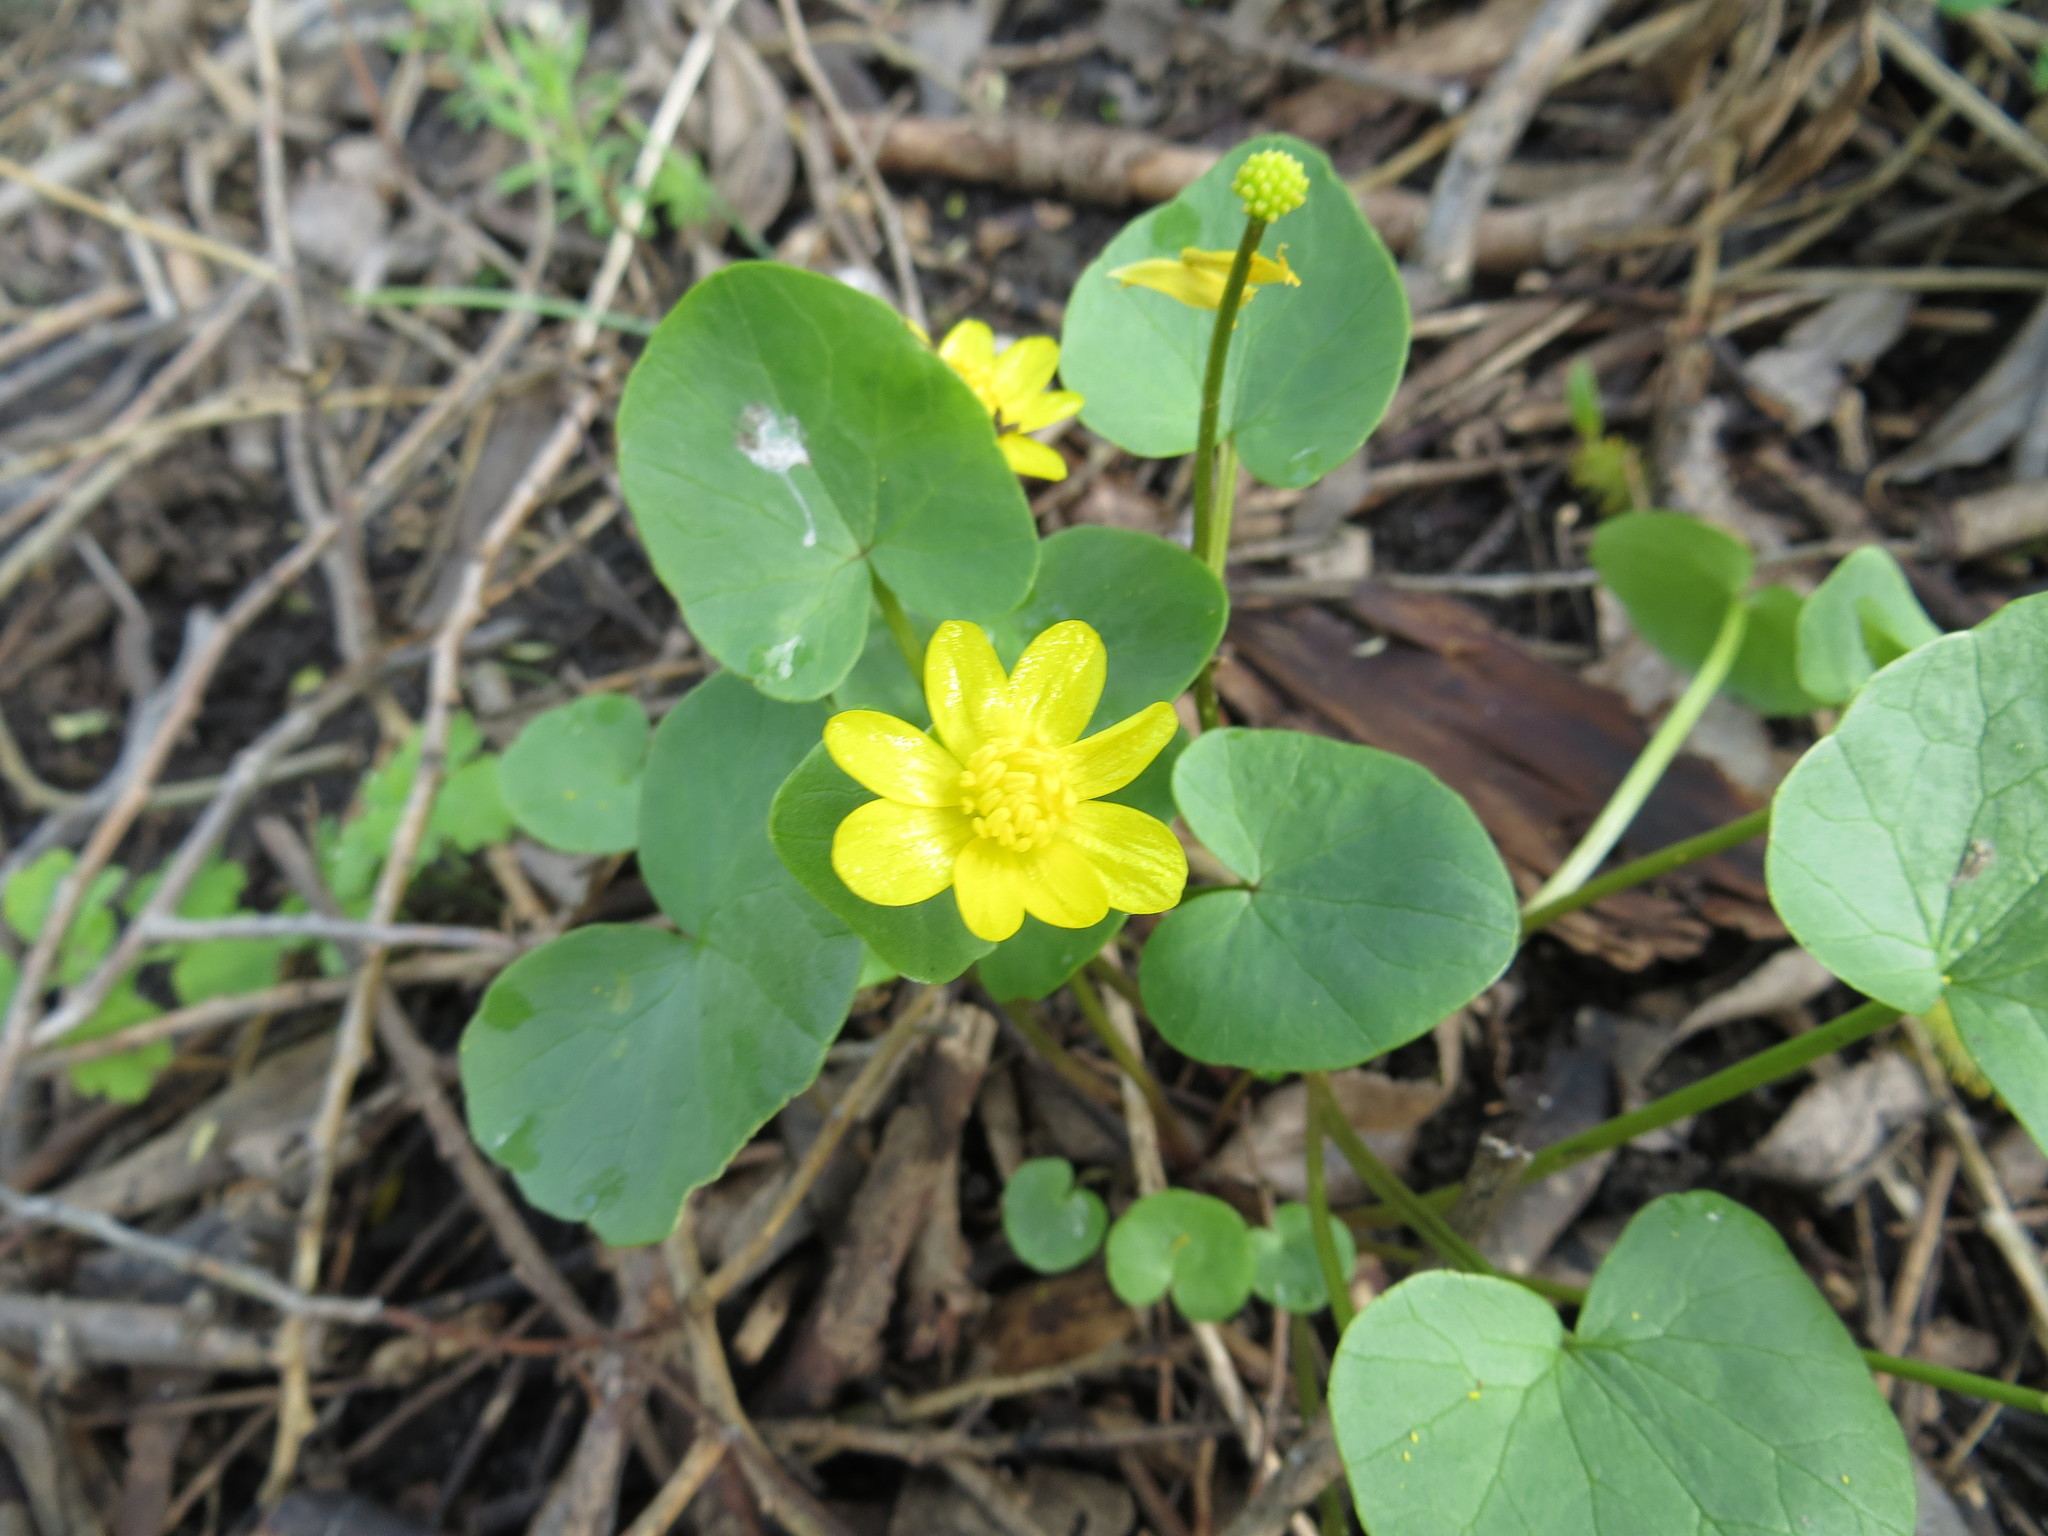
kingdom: Plantae
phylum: Tracheophyta
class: Magnoliopsida
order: Ranunculales
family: Ranunculaceae
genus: Ficaria
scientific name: Ficaria verna
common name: Lesser celandine
